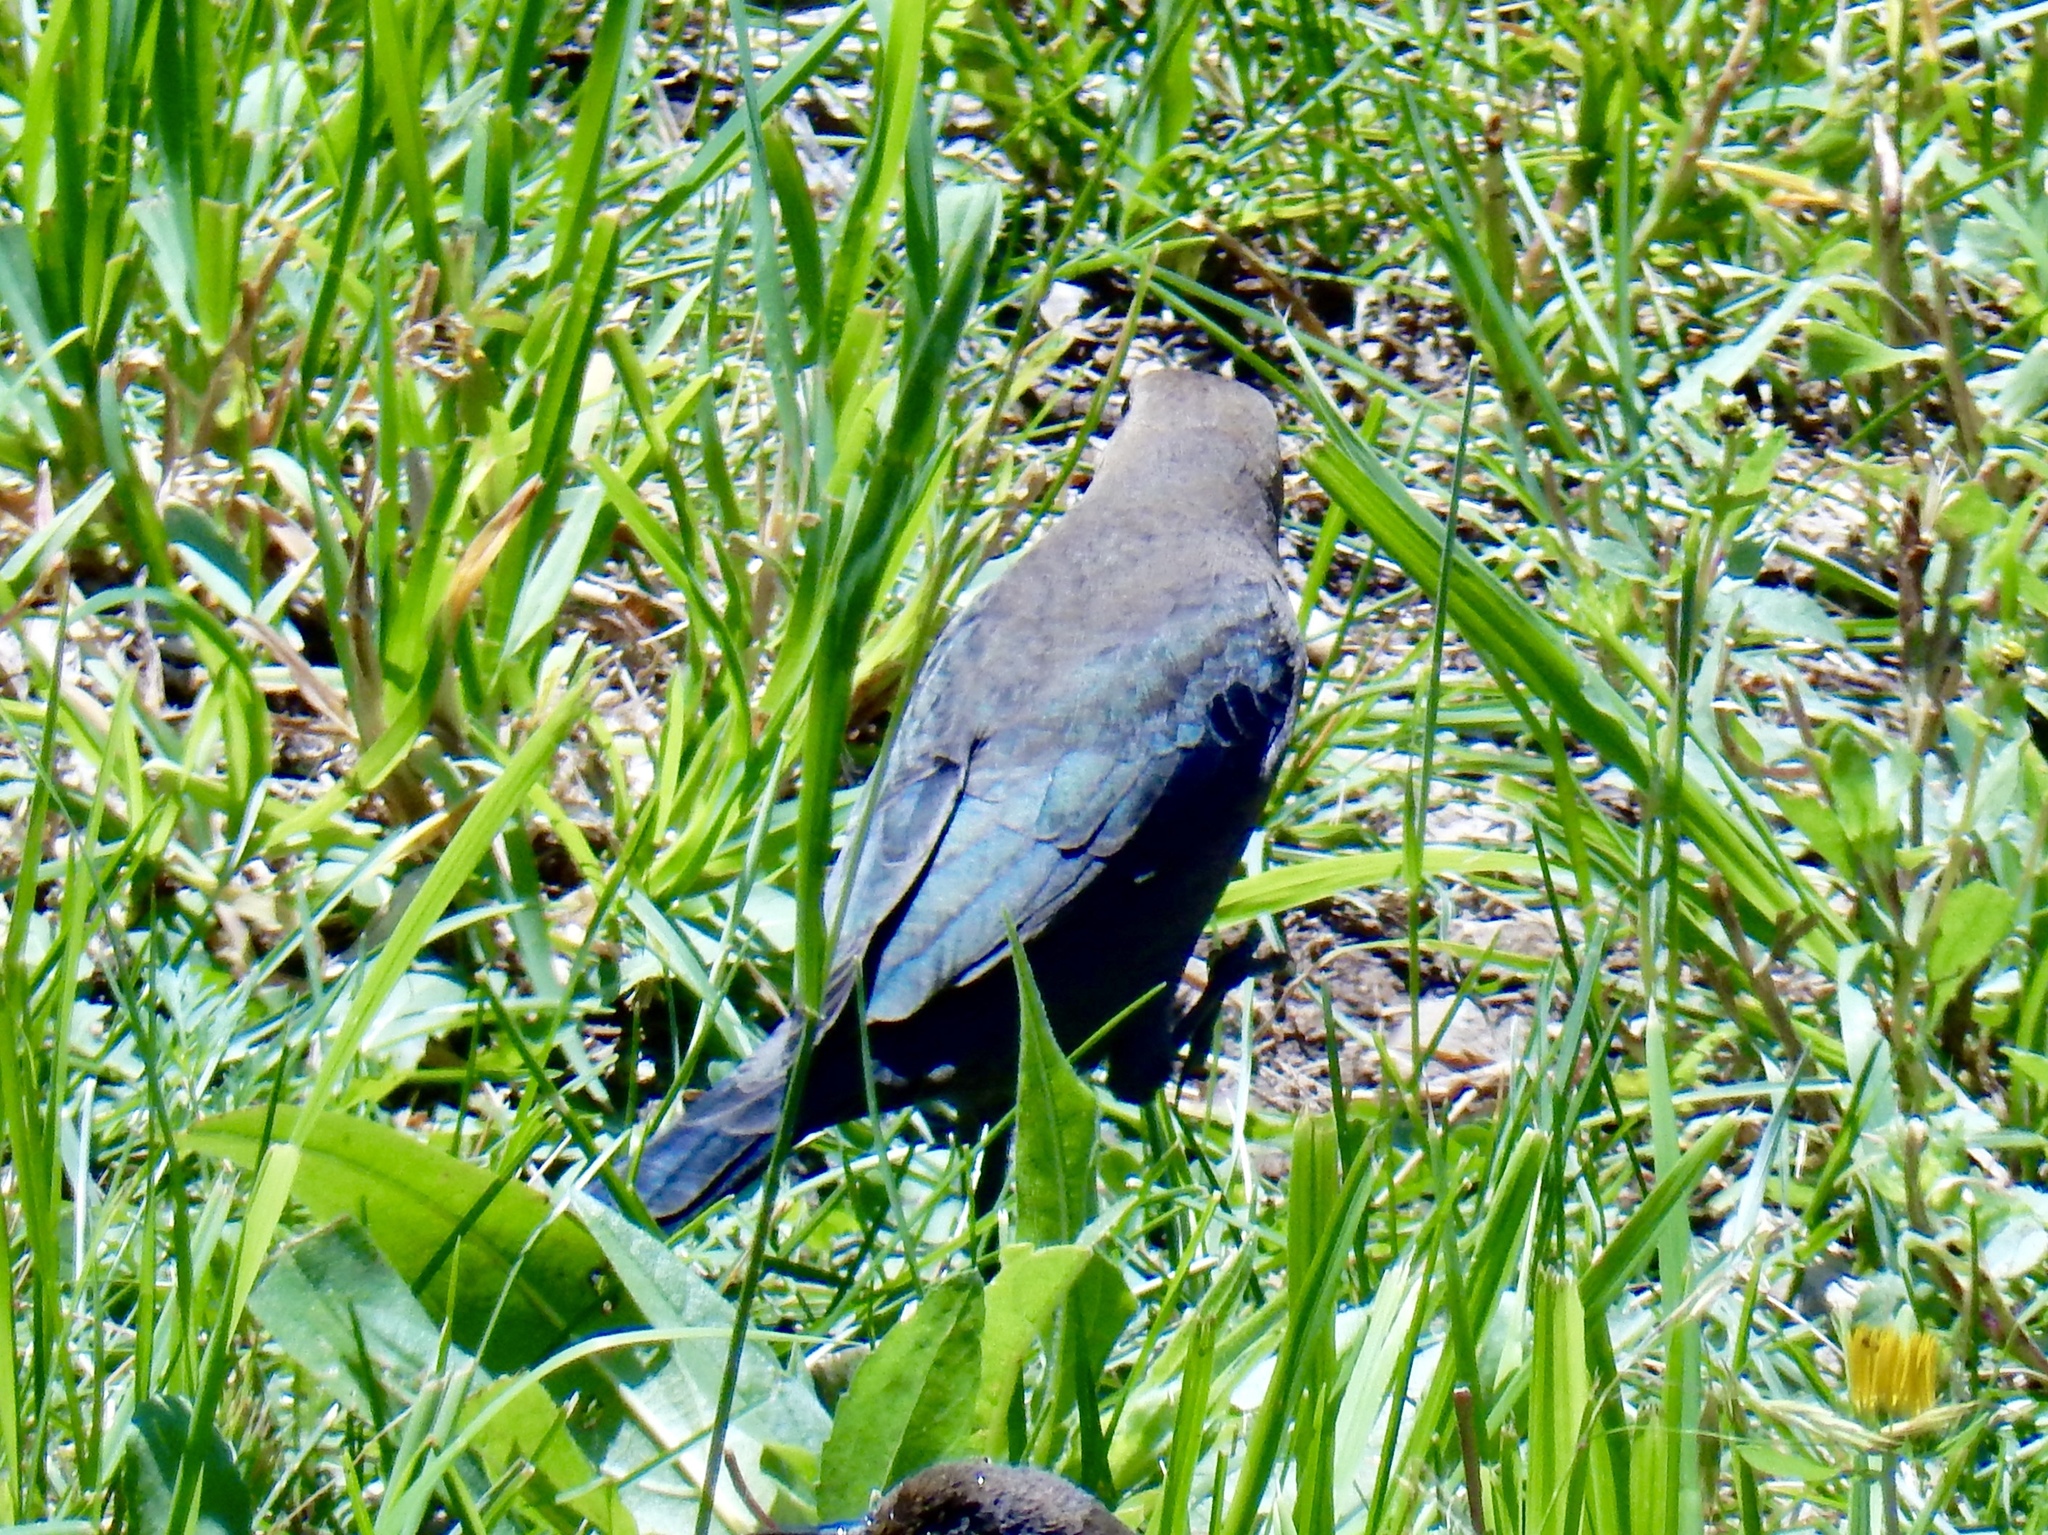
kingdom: Animalia
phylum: Chordata
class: Aves
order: Passeriformes
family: Icteridae
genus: Euphagus
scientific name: Euphagus cyanocephalus
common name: Brewer's blackbird
